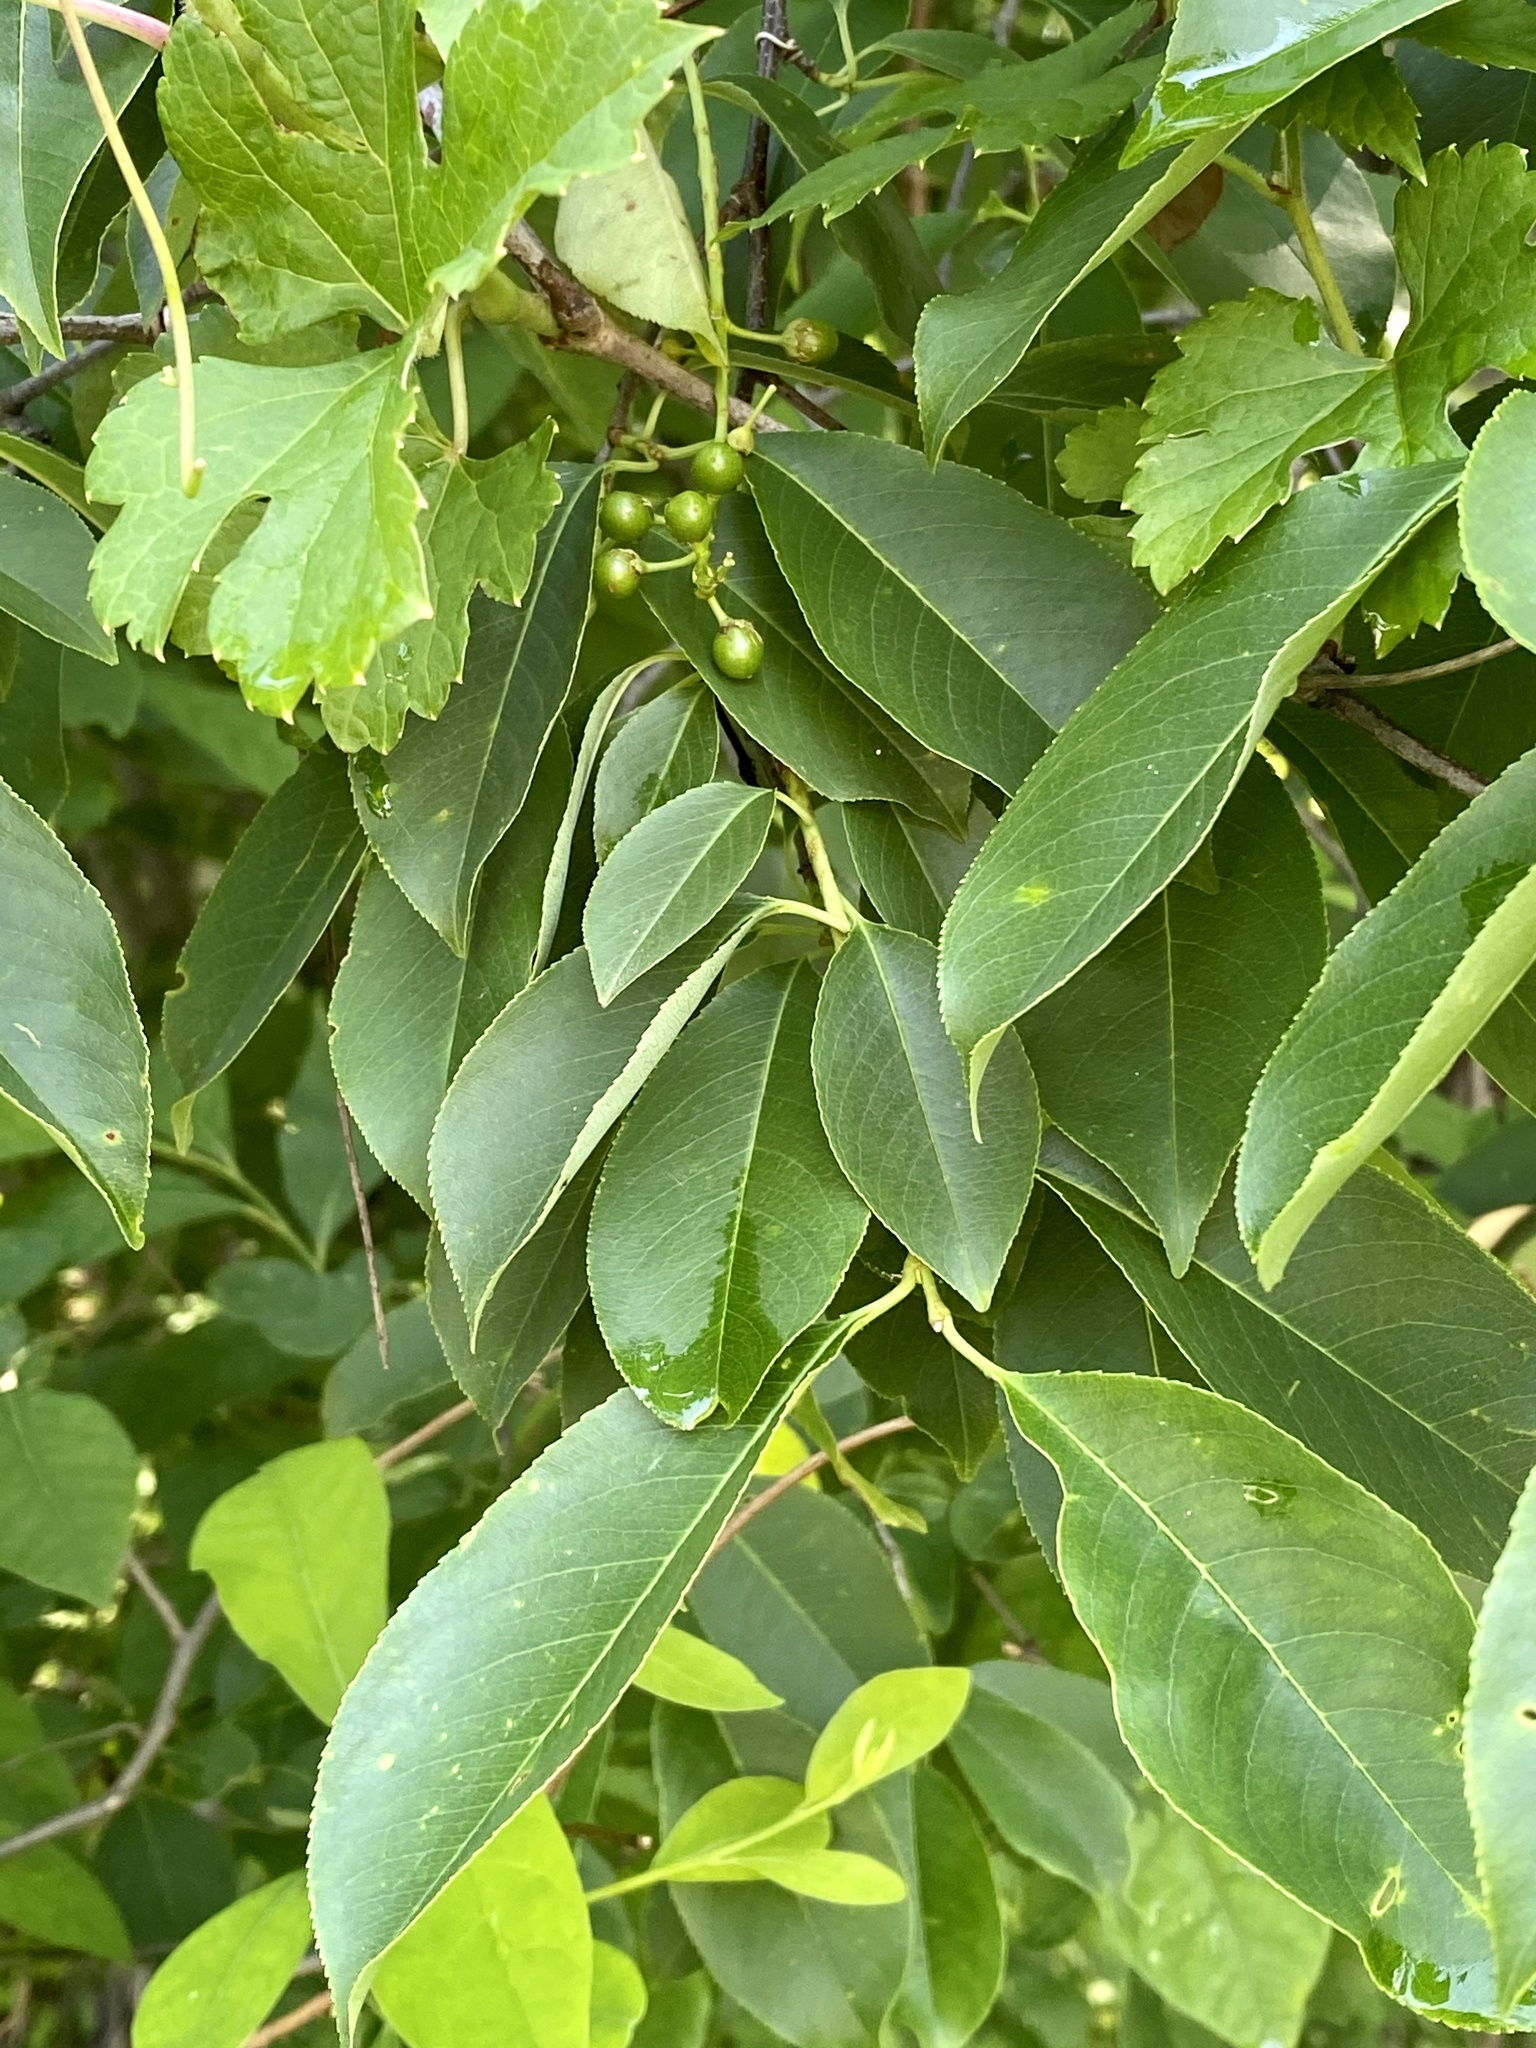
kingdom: Plantae
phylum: Tracheophyta
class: Magnoliopsida
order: Rosales
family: Rosaceae
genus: Prunus
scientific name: Prunus serotina
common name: Black cherry
